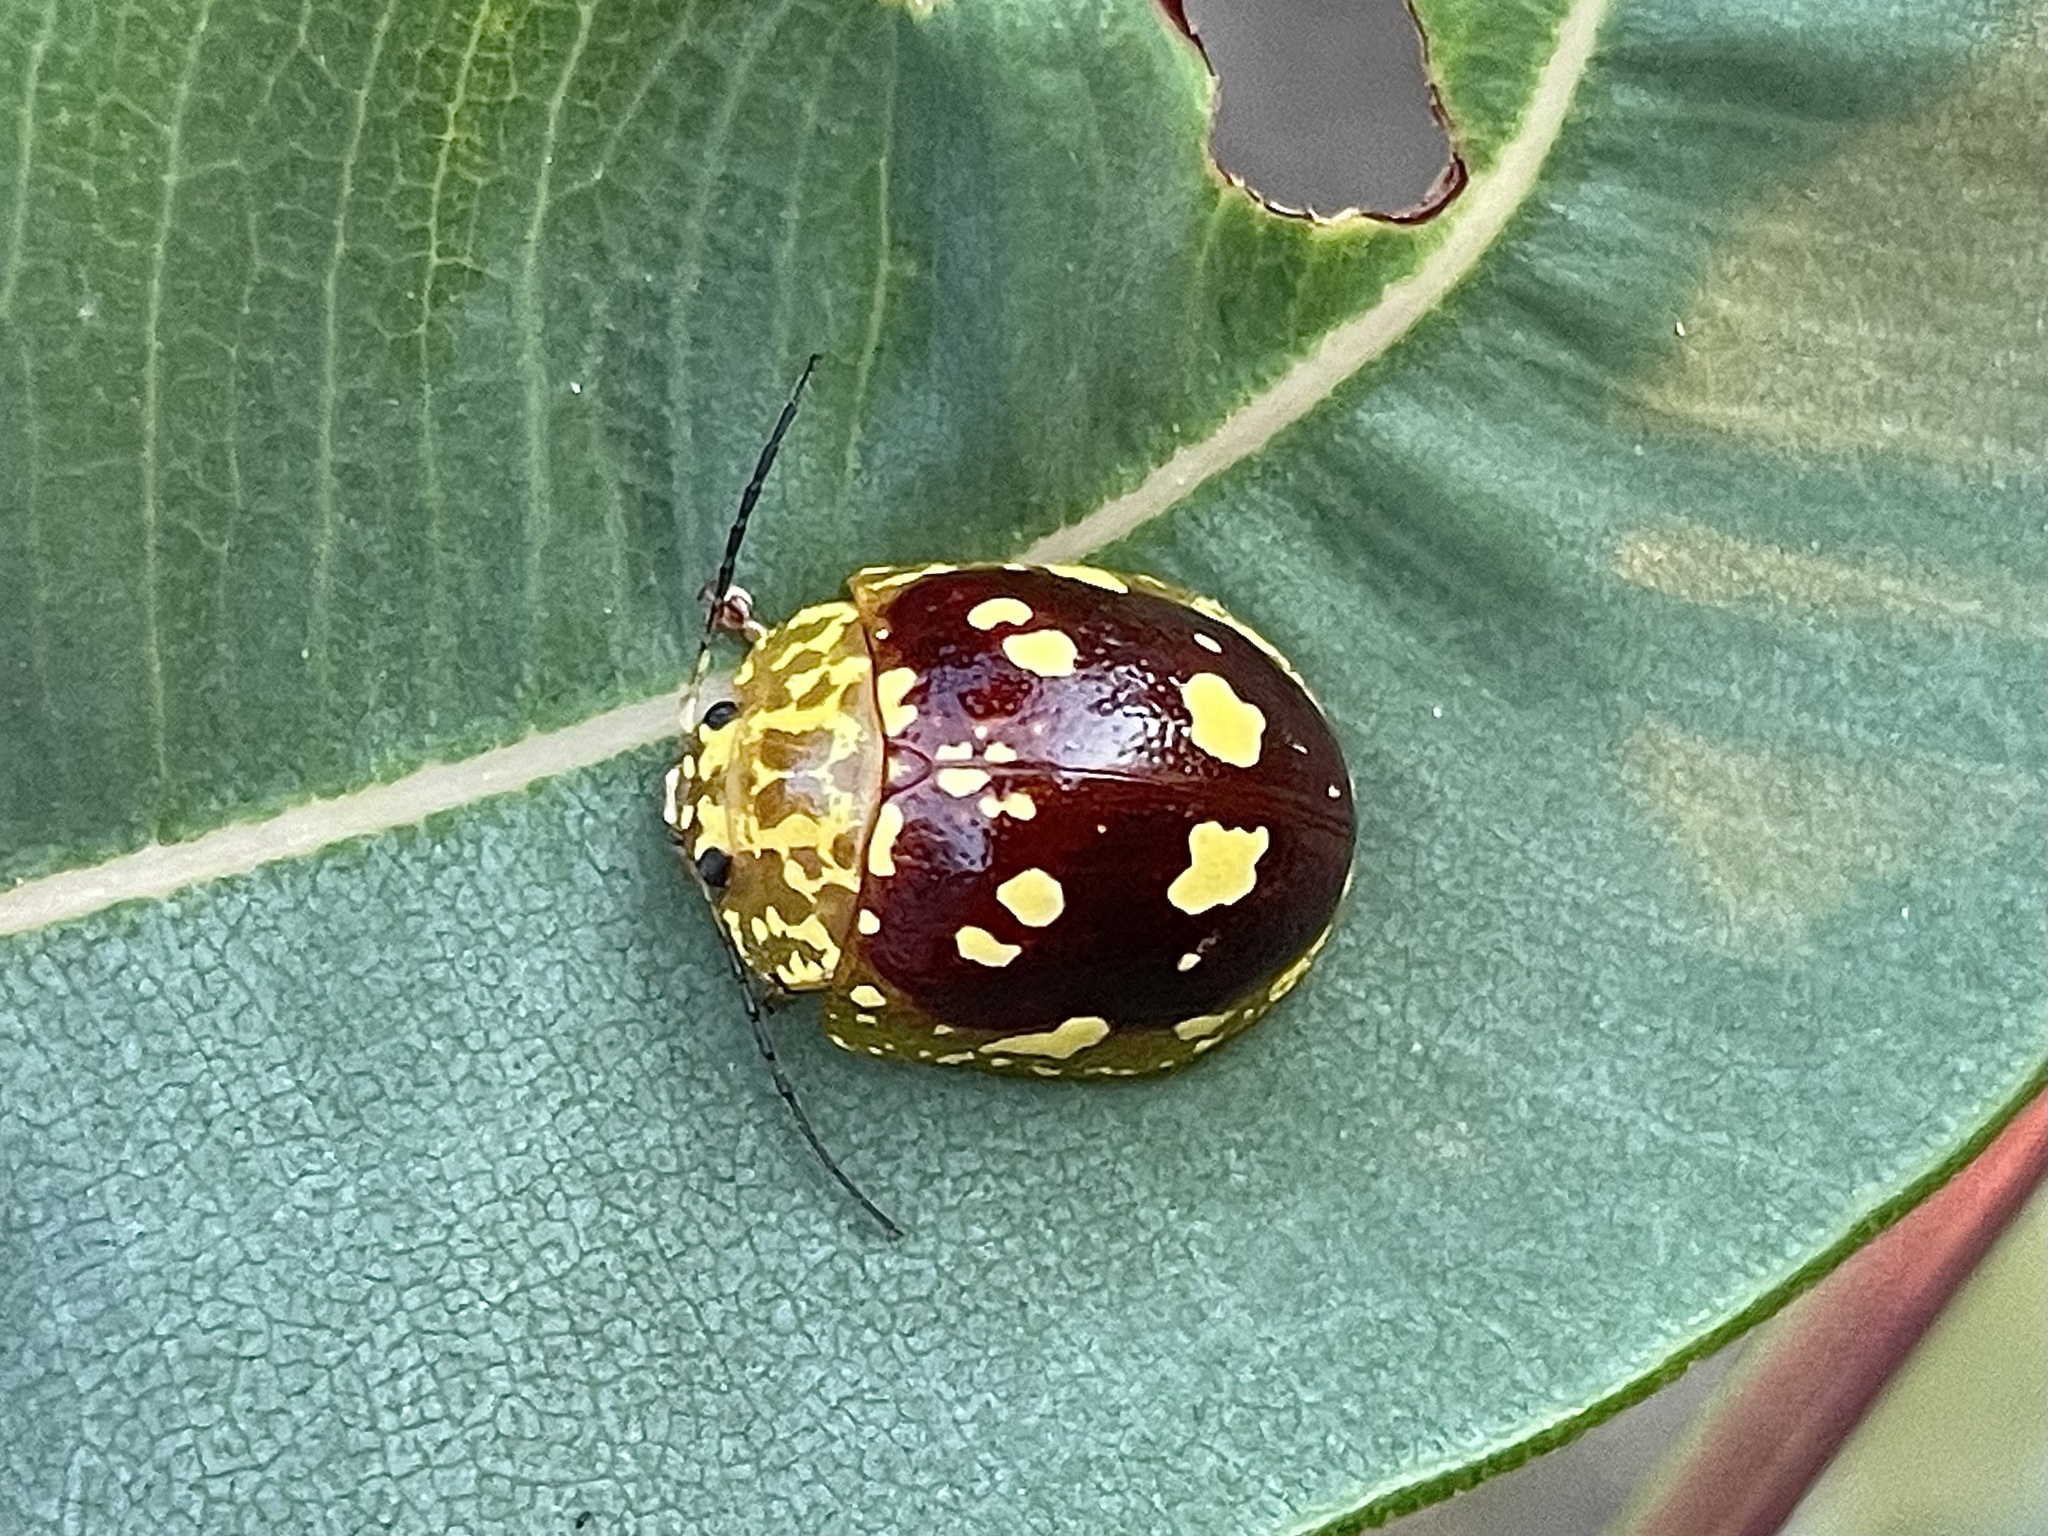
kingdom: Animalia
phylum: Arthropoda
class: Insecta
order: Coleoptera
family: Chrysomelidae
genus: Paropsis
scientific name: Paropsis maculata
